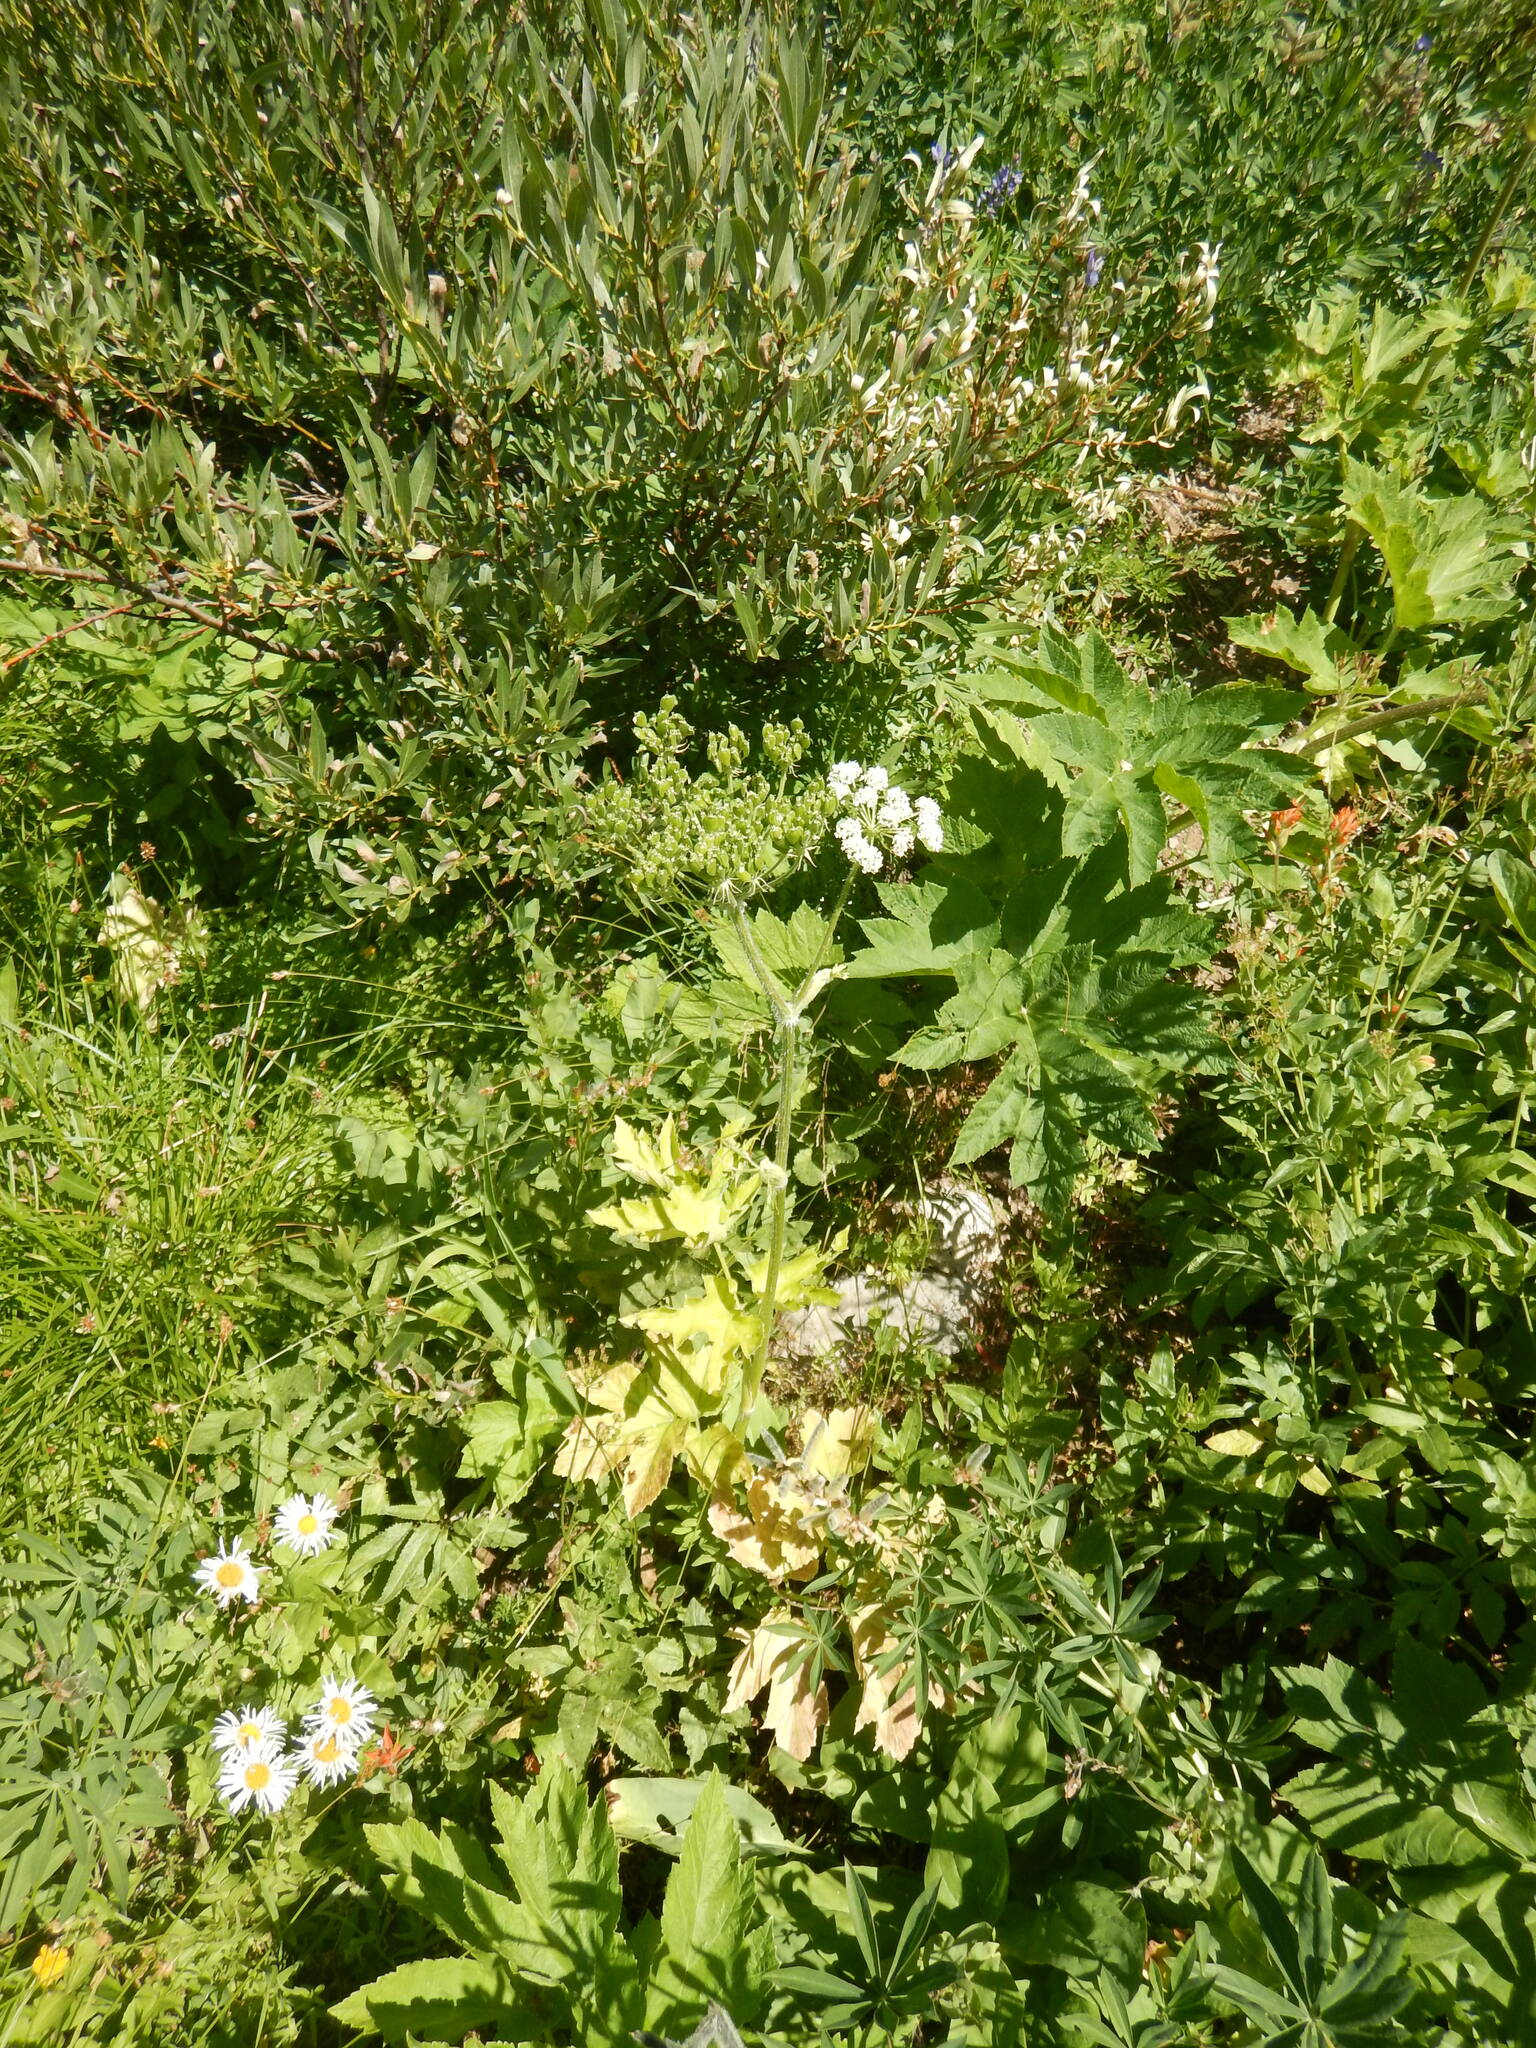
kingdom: Plantae
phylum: Tracheophyta
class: Magnoliopsida
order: Apiales
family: Apiaceae
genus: Heracleum
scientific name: Heracleum maximum
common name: American cow parsnip
